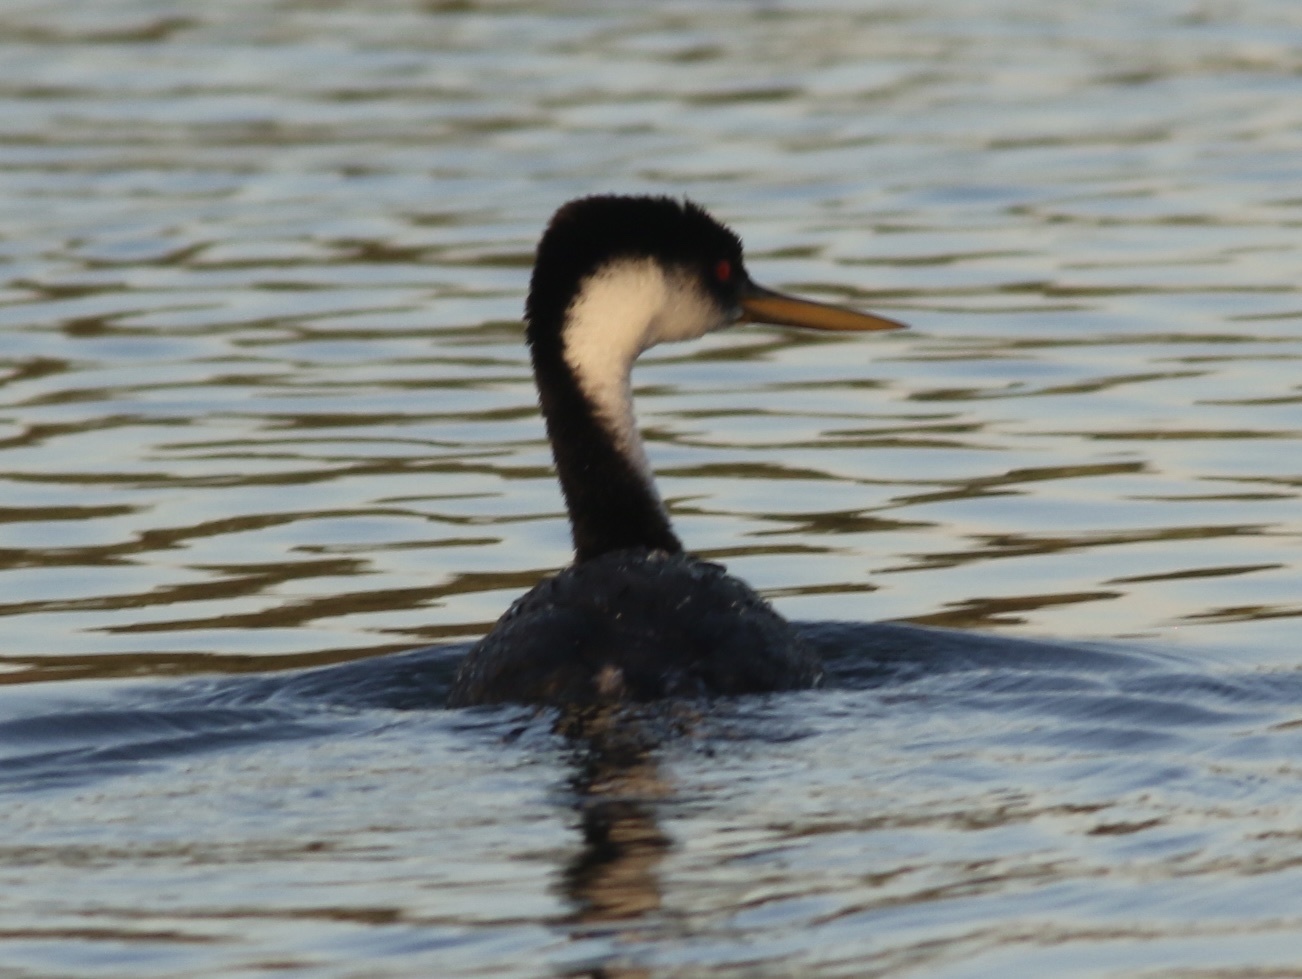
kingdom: Animalia
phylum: Chordata
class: Aves
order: Podicipediformes
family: Podicipedidae
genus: Aechmophorus
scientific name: Aechmophorus occidentalis
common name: Western grebe
